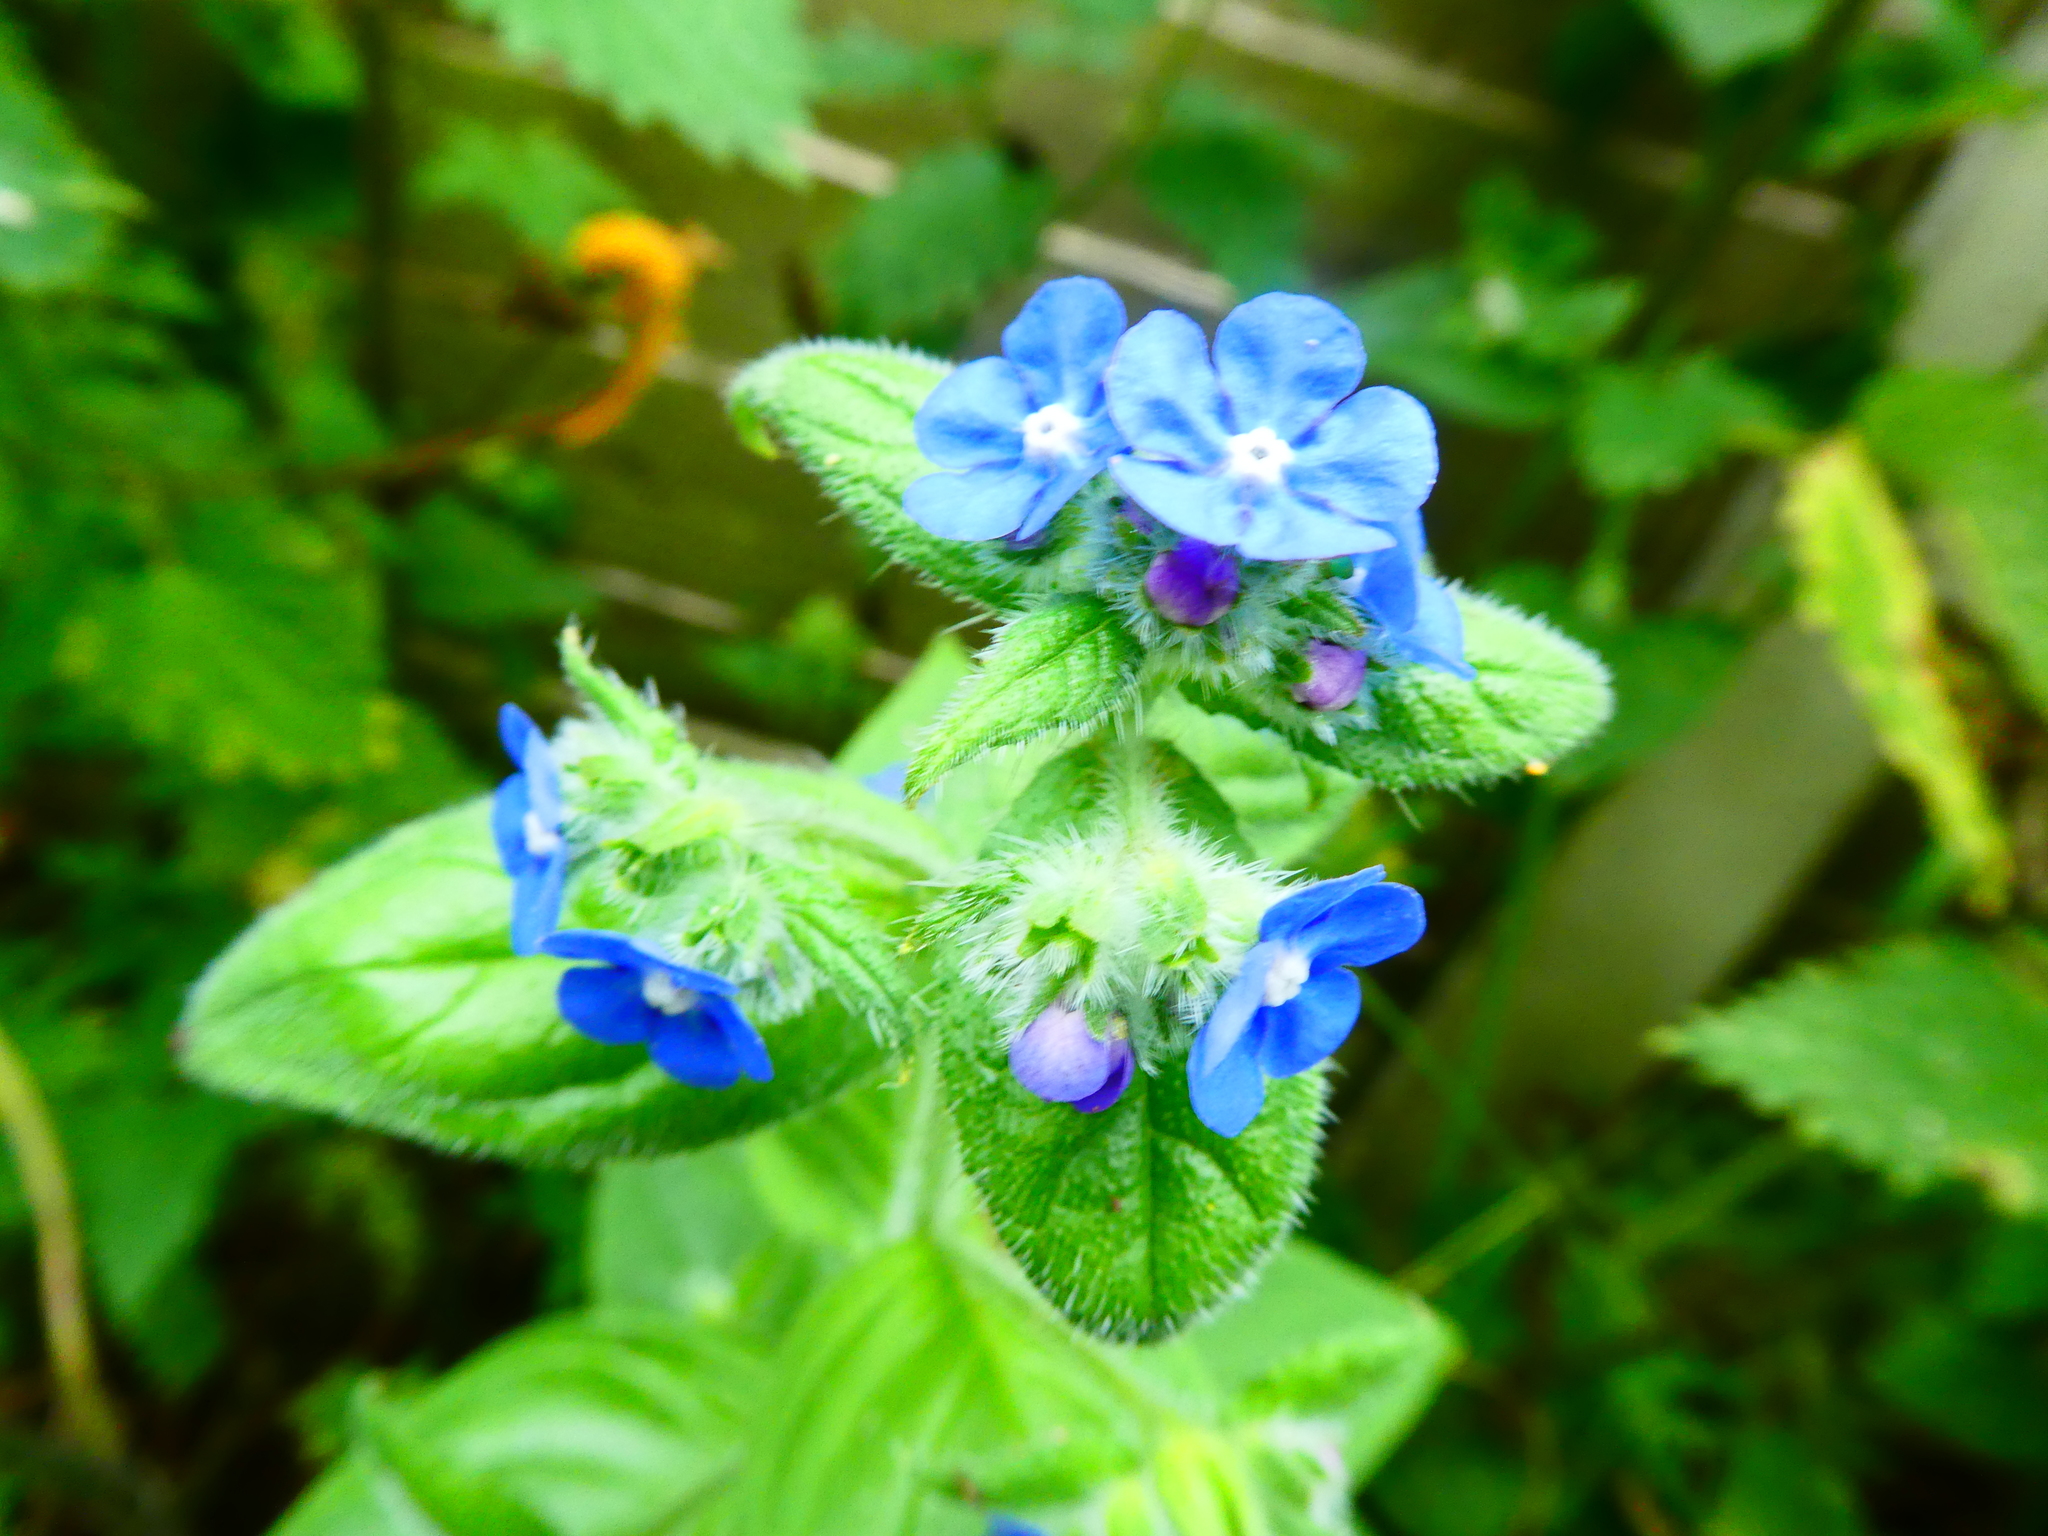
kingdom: Plantae
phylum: Tracheophyta
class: Magnoliopsida
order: Boraginales
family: Boraginaceae
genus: Pentaglottis
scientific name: Pentaglottis sempervirens
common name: Green alkanet
